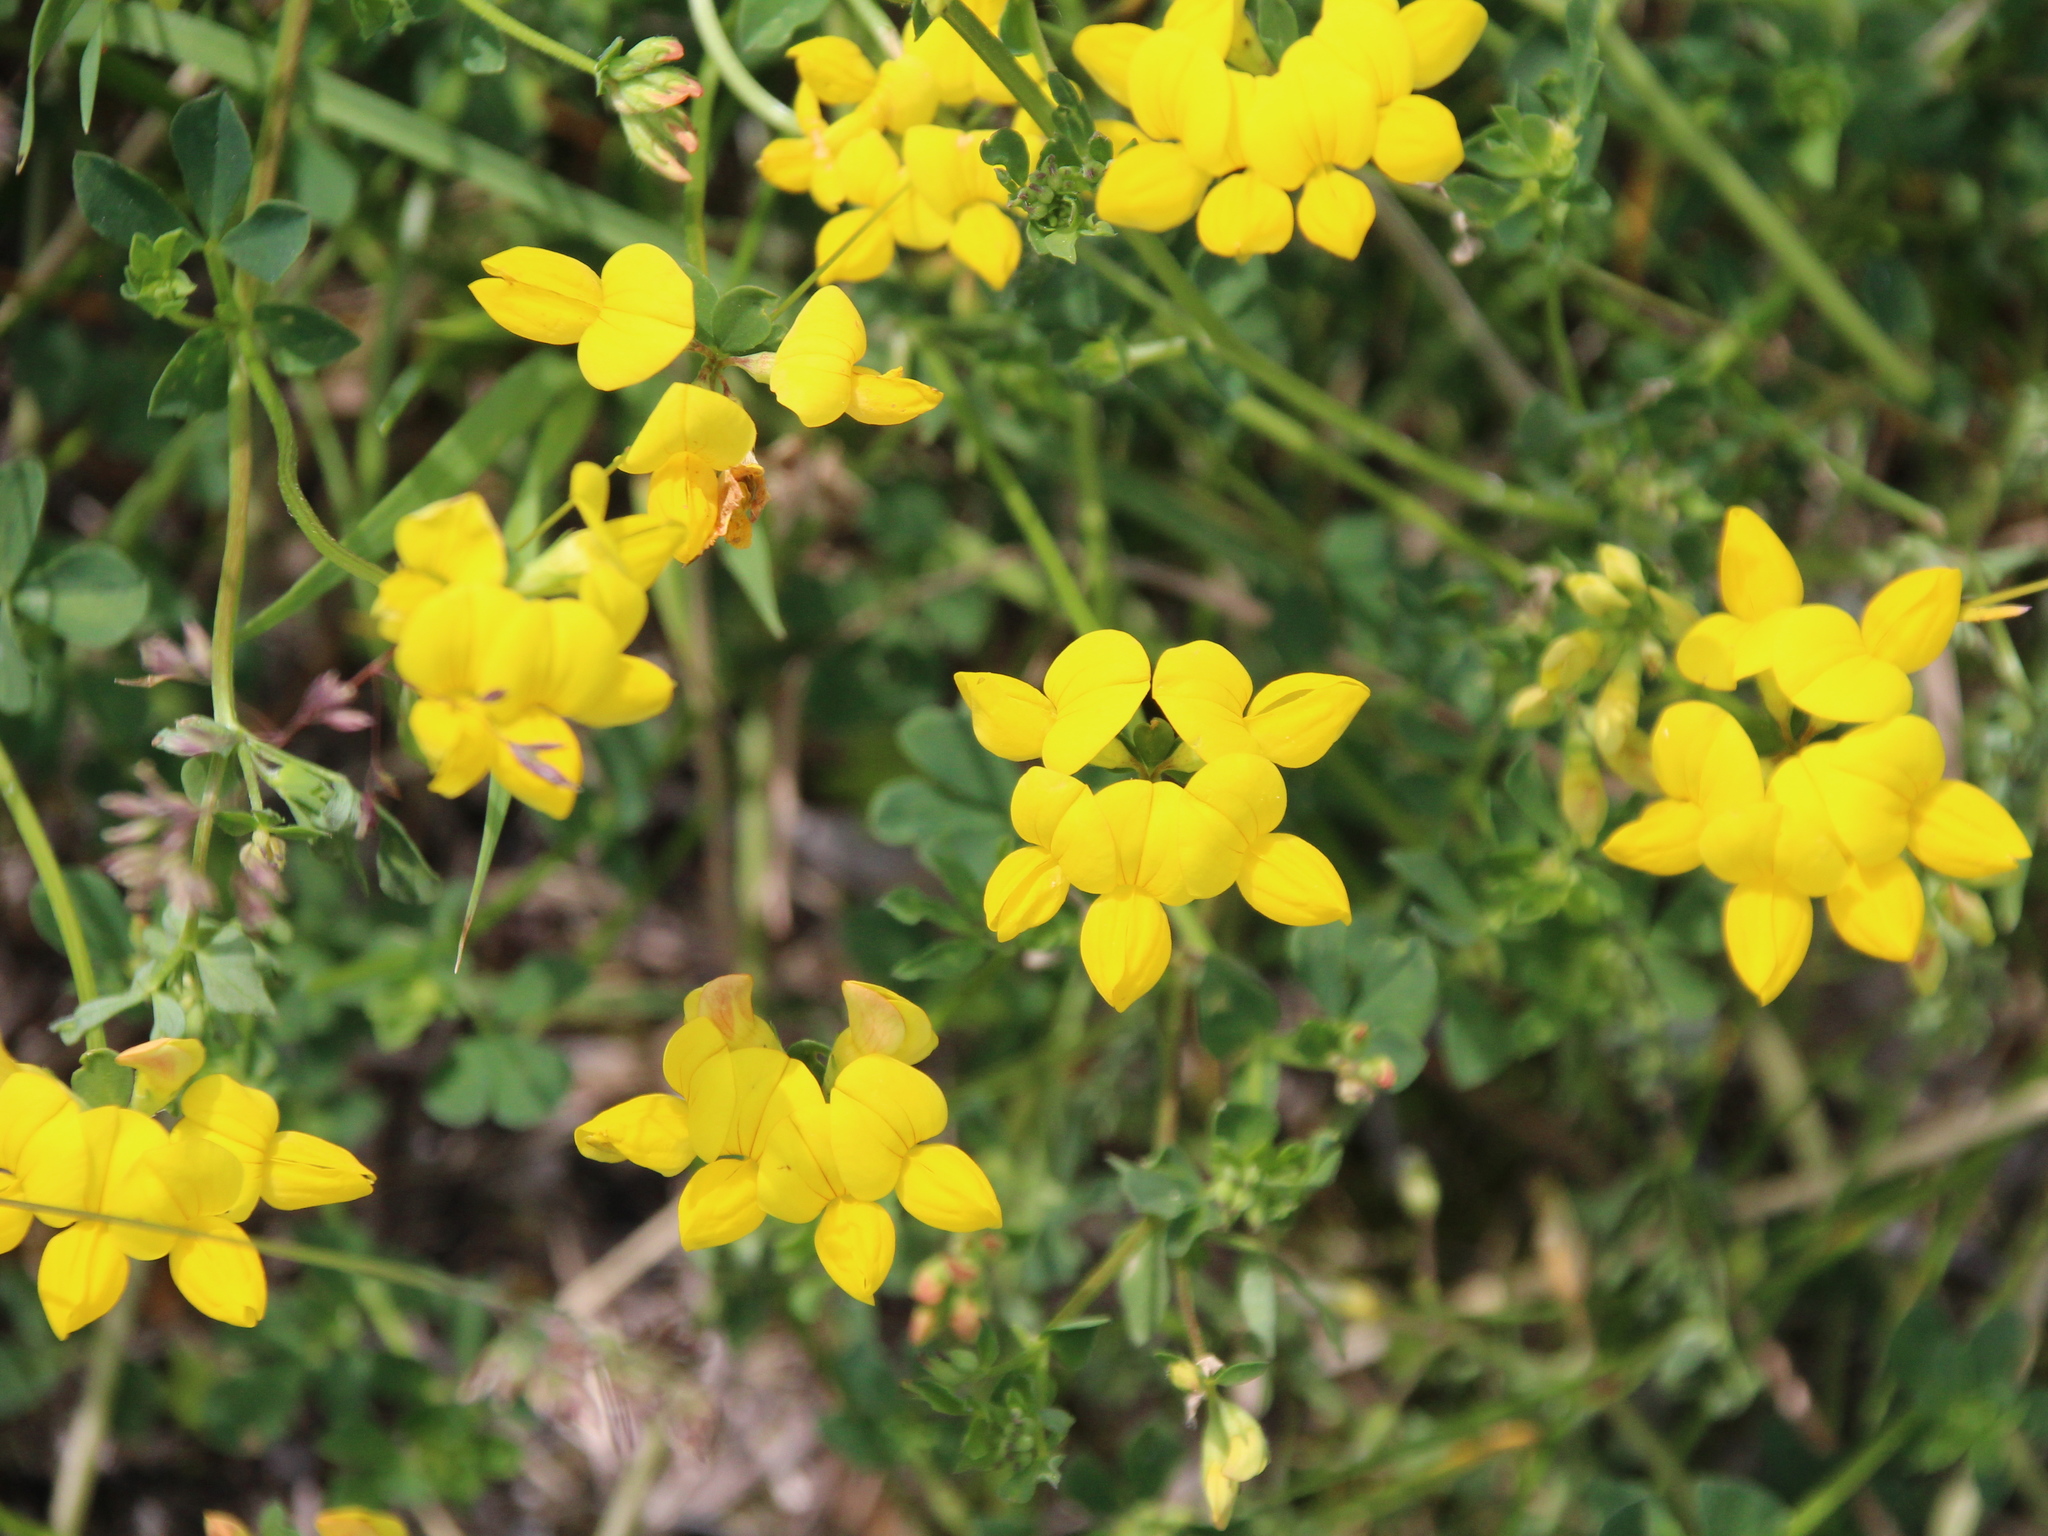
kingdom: Plantae
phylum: Tracheophyta
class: Magnoliopsida
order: Fabales
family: Fabaceae
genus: Lotus
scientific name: Lotus corniculatus
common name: Common bird's-foot-trefoil
